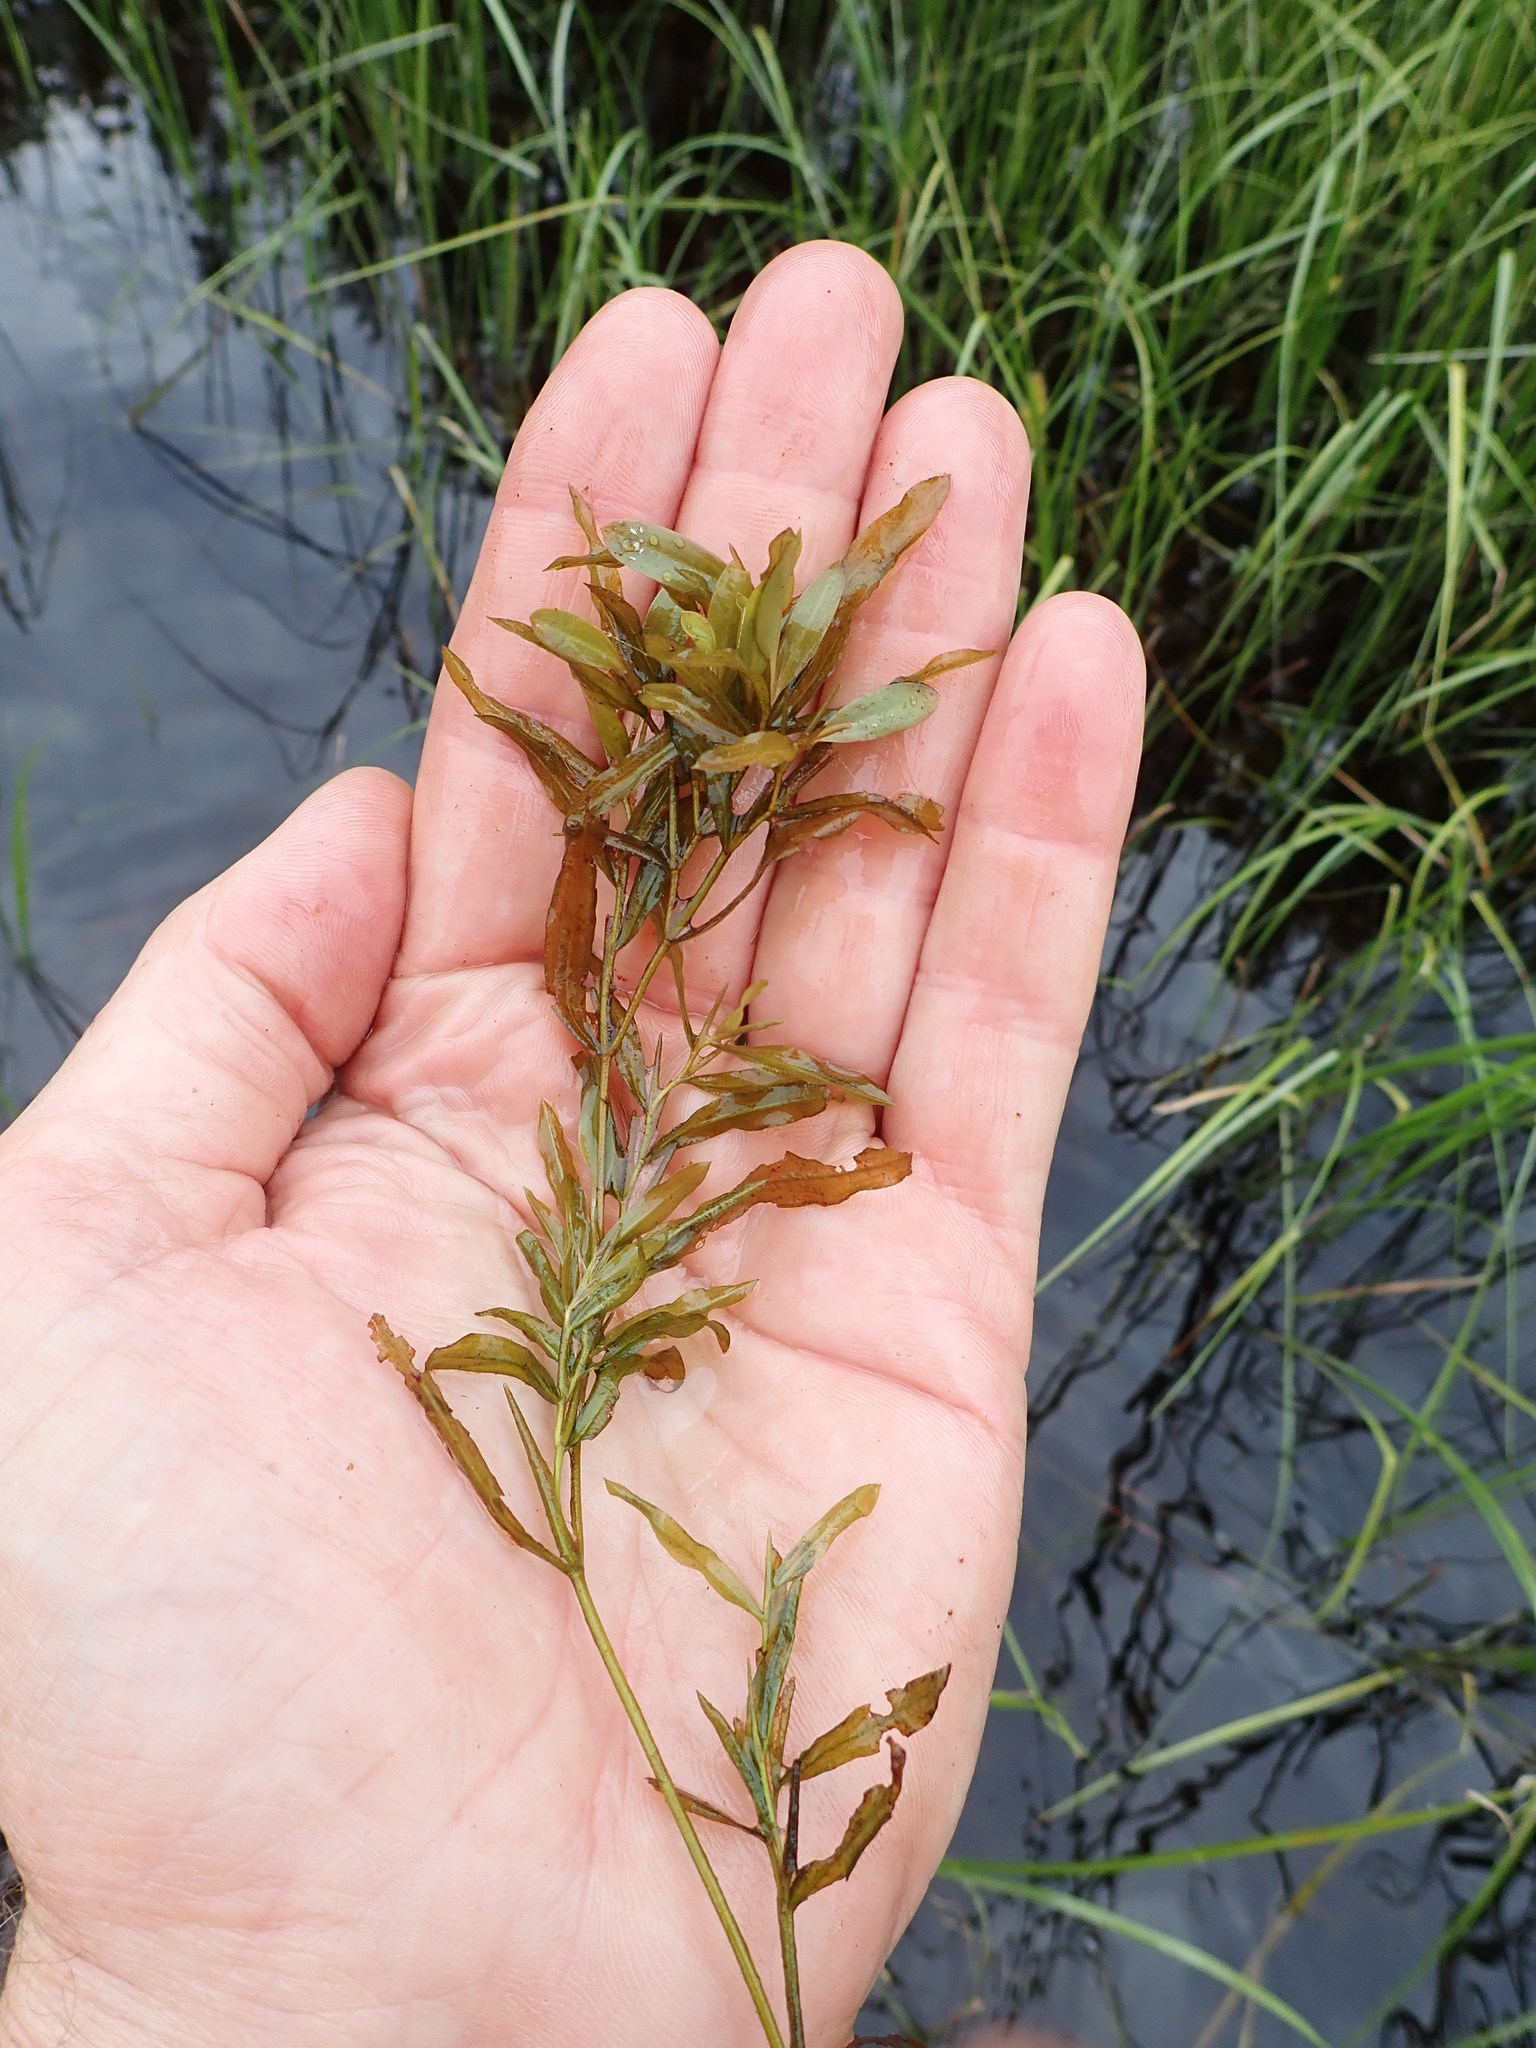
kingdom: Plantae
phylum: Tracheophyta
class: Liliopsida
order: Alismatales
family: Potamogetonaceae
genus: Potamogeton
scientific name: Potamogeton gramineus
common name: Various-leaved pondweed
